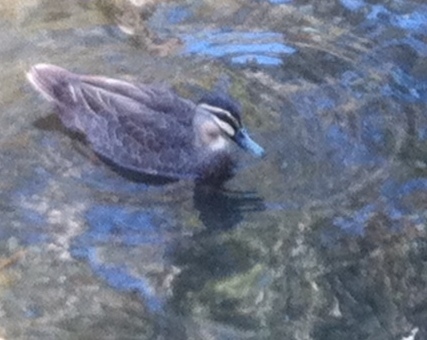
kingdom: Animalia
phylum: Chordata
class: Aves
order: Anseriformes
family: Anatidae
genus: Anas
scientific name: Anas superciliosa
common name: Pacific black duck
